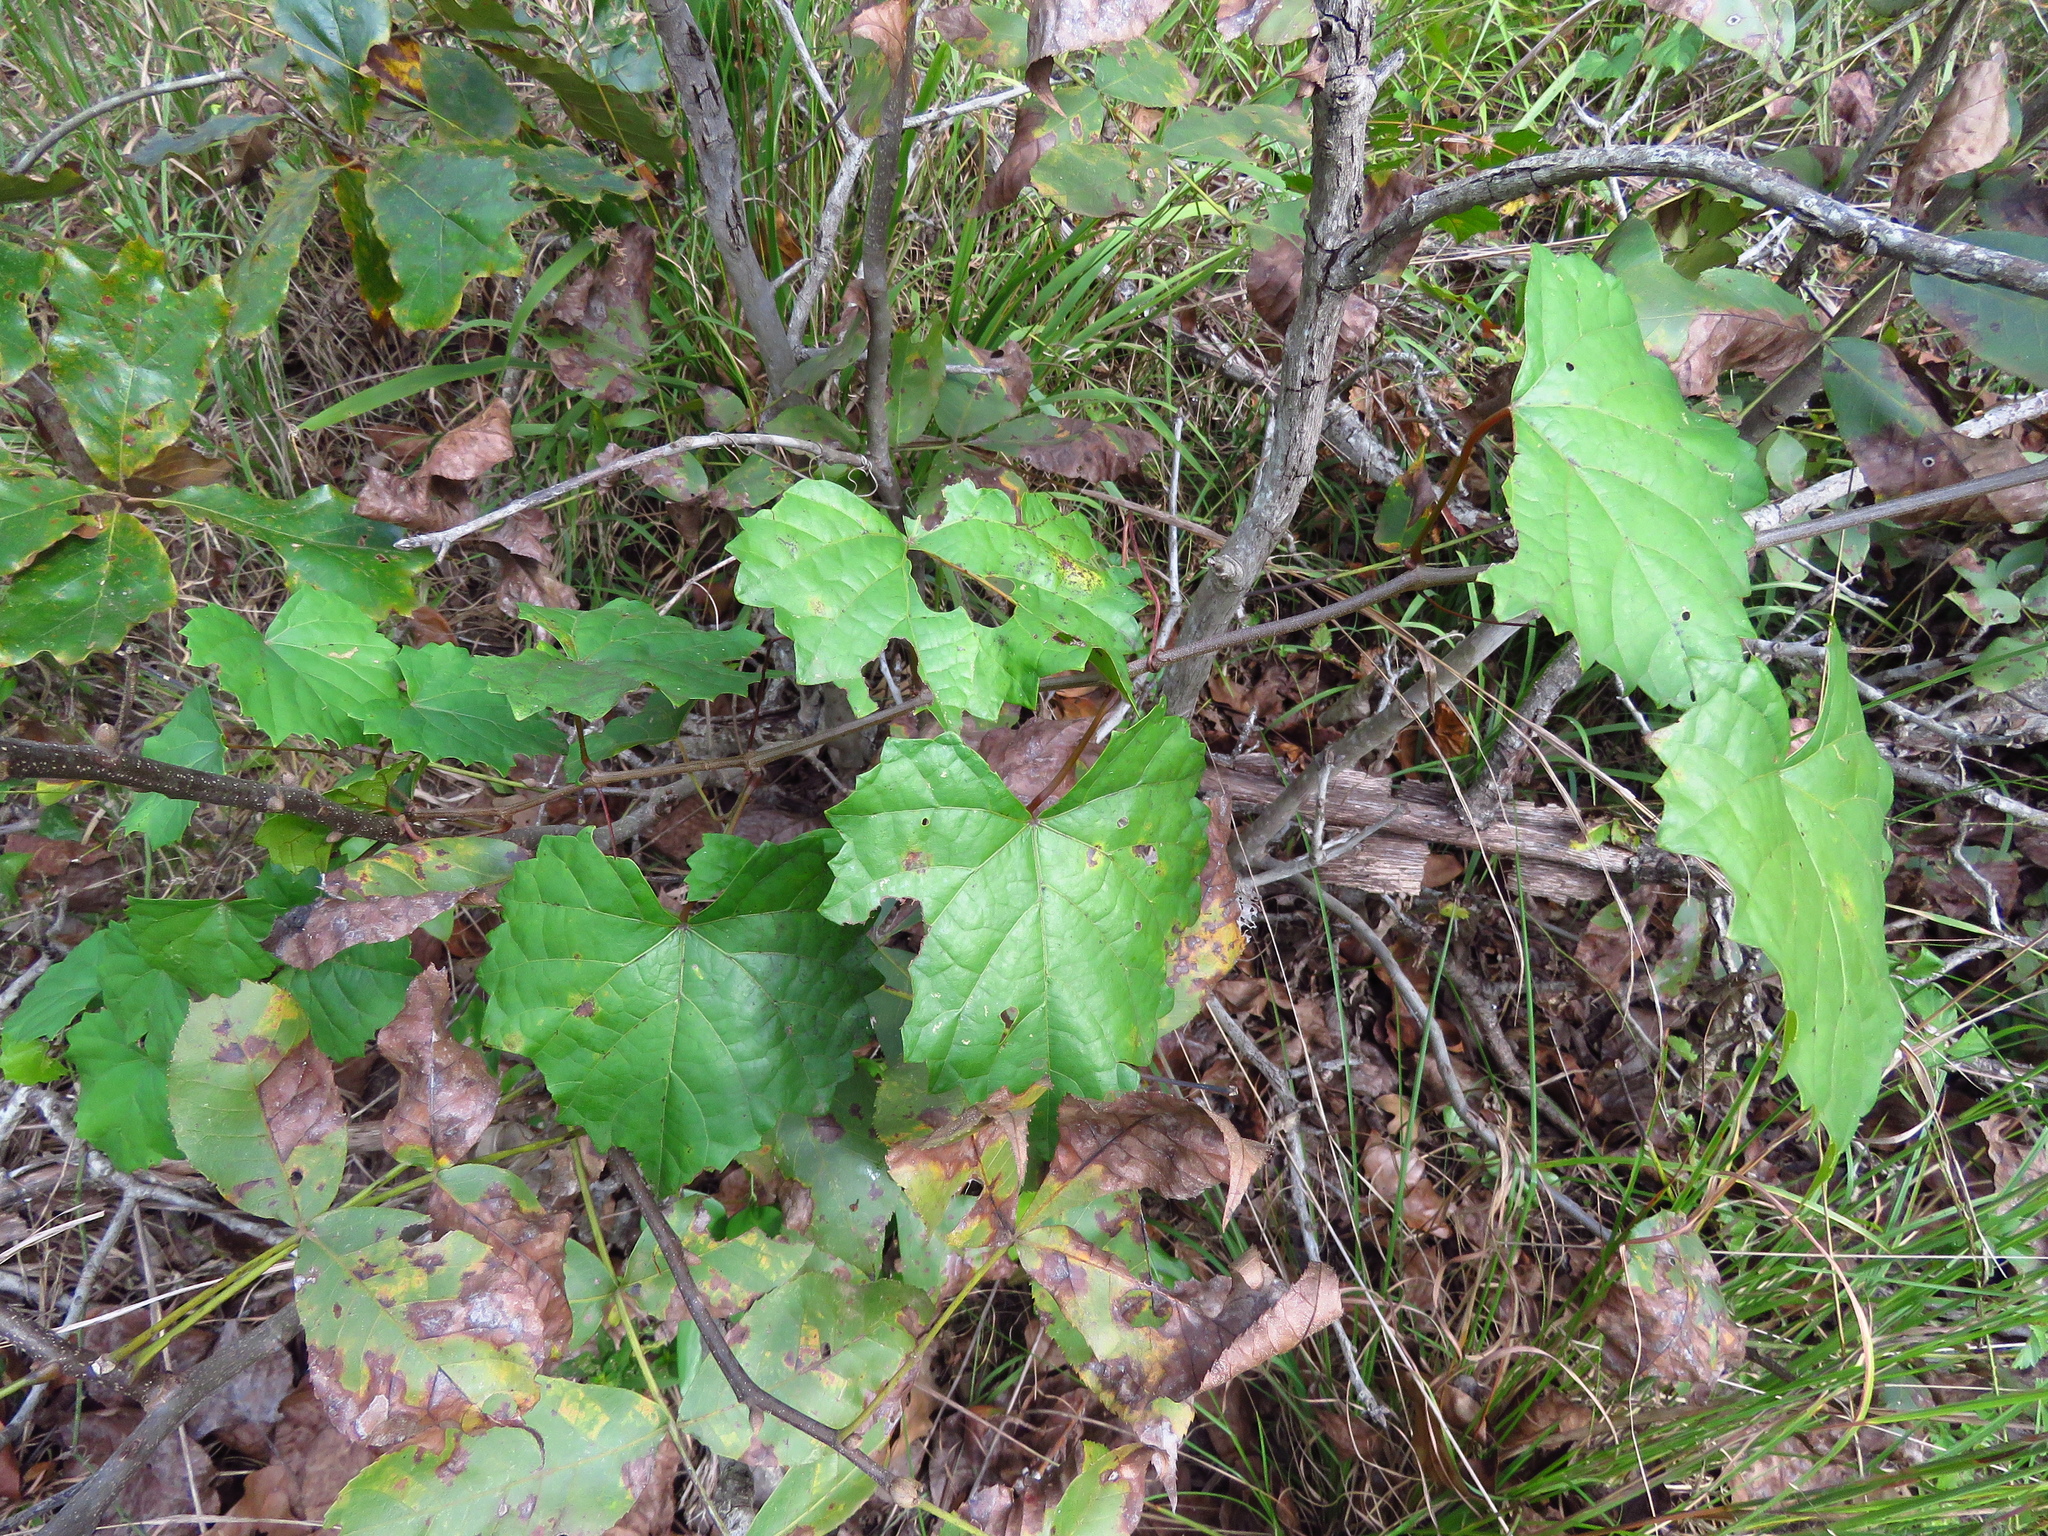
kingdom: Plantae
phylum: Tracheophyta
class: Magnoliopsida
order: Vitales
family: Vitaceae
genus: Vitis
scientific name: Vitis rotundifolia
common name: Muscadine grape
